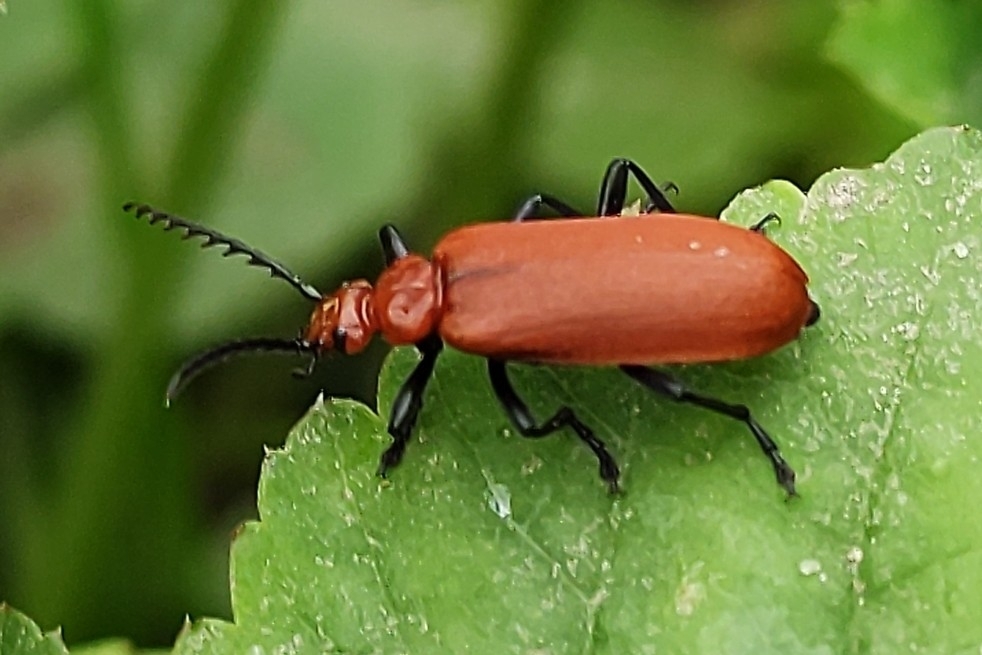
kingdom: Animalia
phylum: Arthropoda
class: Insecta
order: Coleoptera
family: Pyrochroidae
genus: Pyrochroa
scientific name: Pyrochroa serraticornis
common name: Red-headed cardinal beetle
